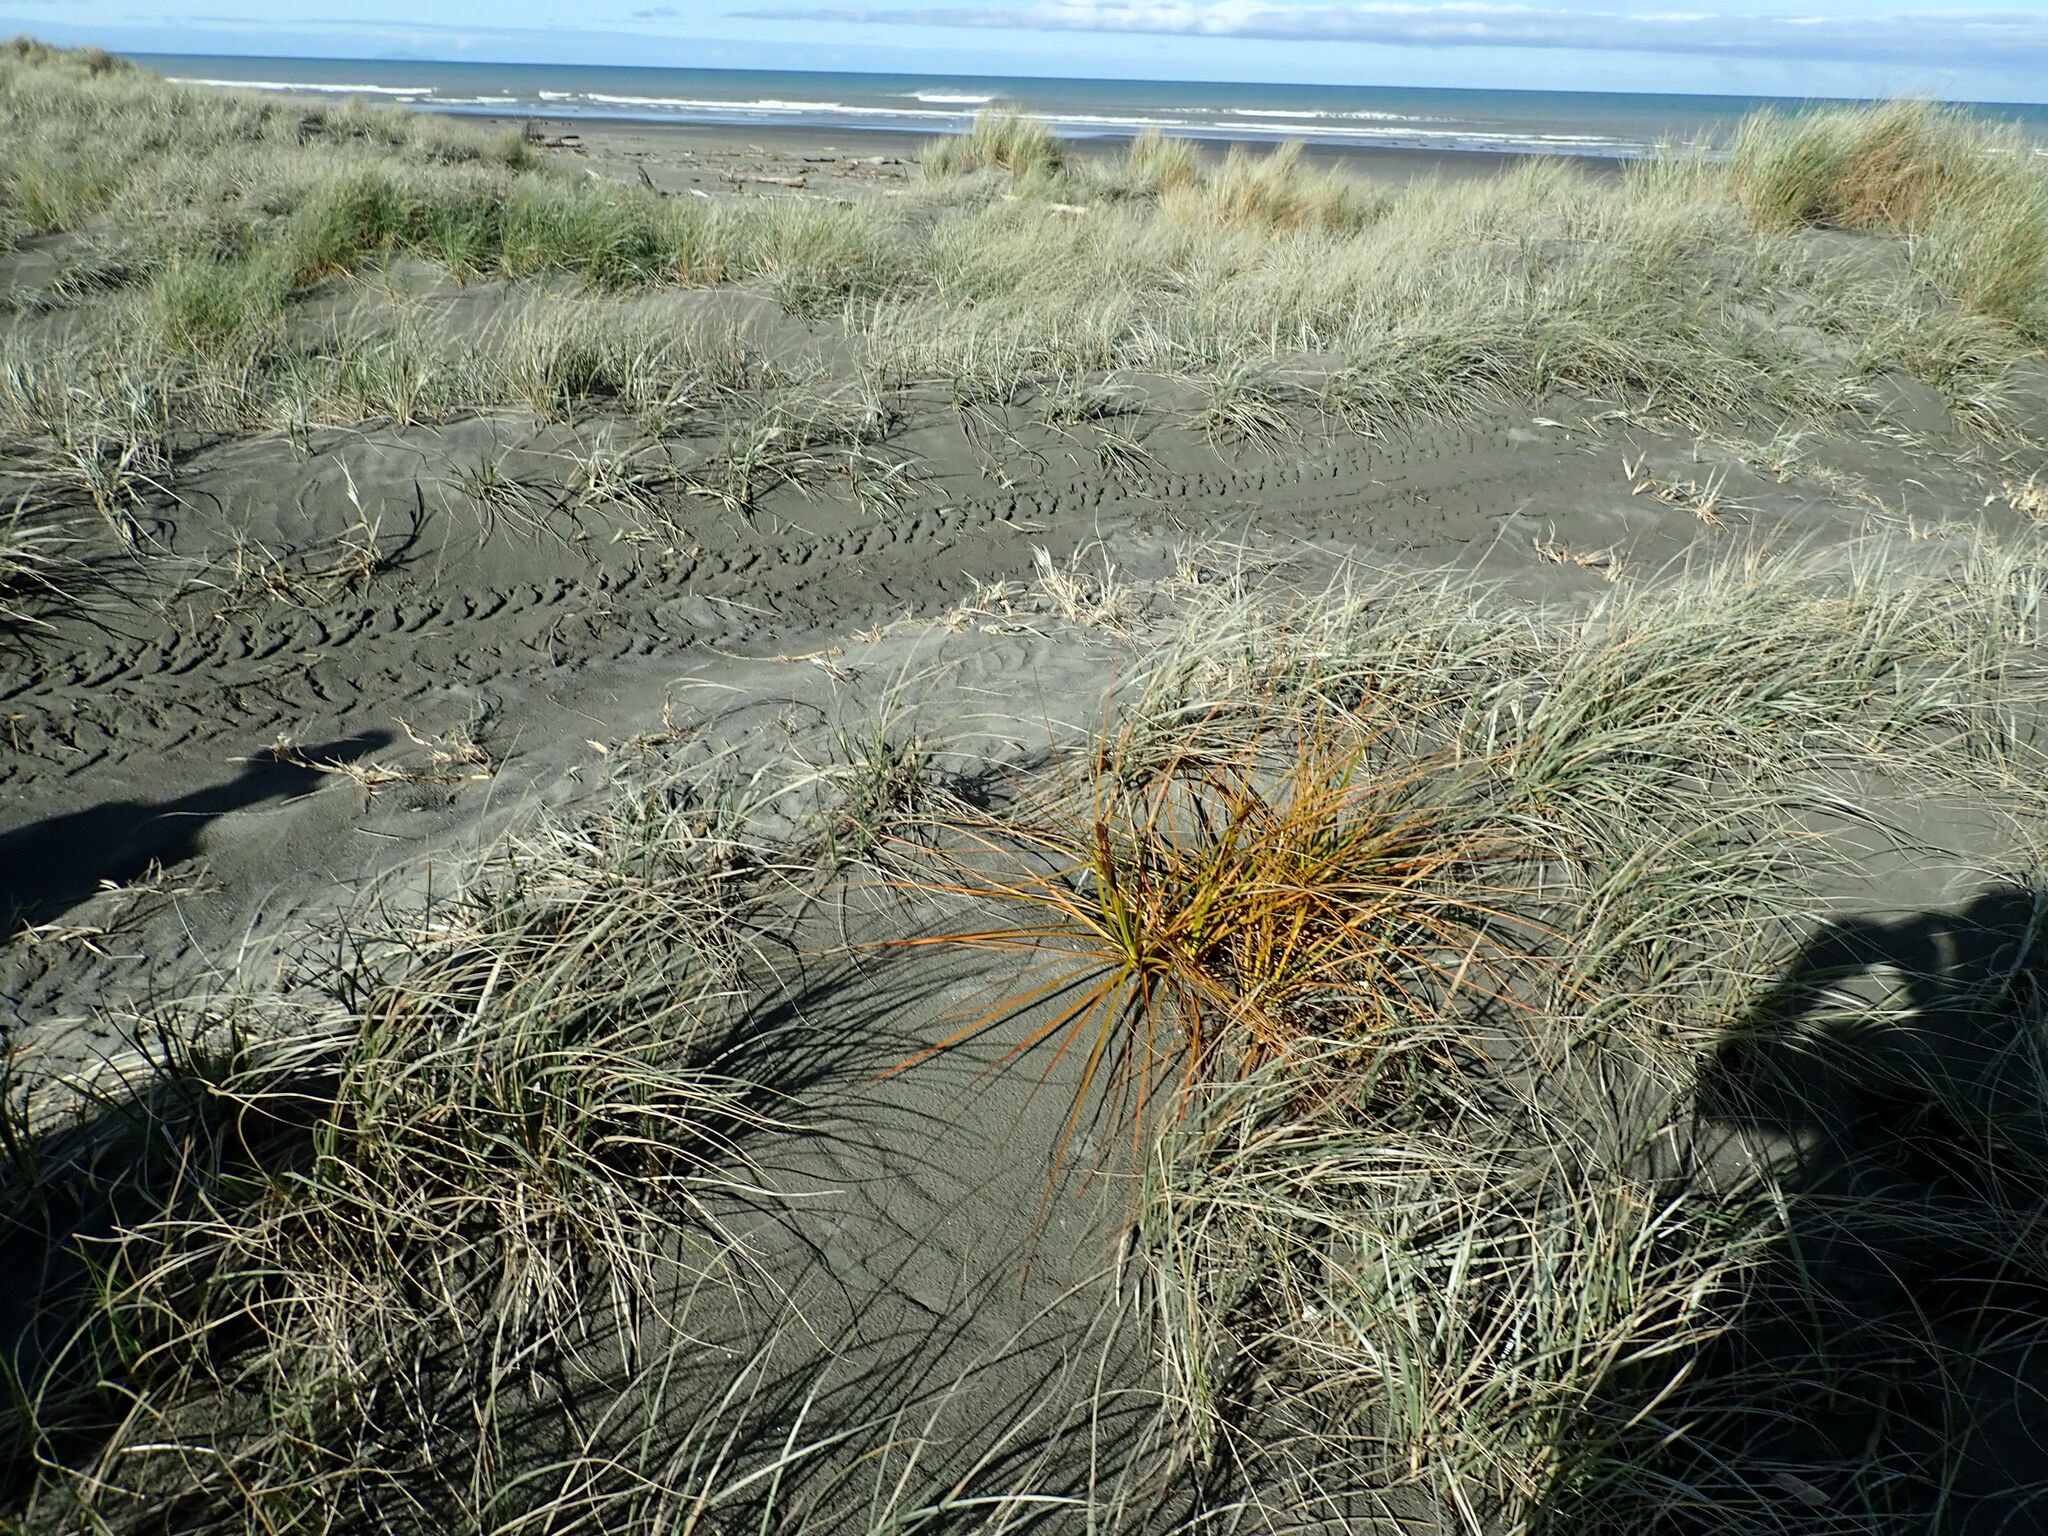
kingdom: Plantae
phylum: Tracheophyta
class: Liliopsida
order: Poales
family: Cyperaceae
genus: Ficinia
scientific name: Ficinia spiralis
